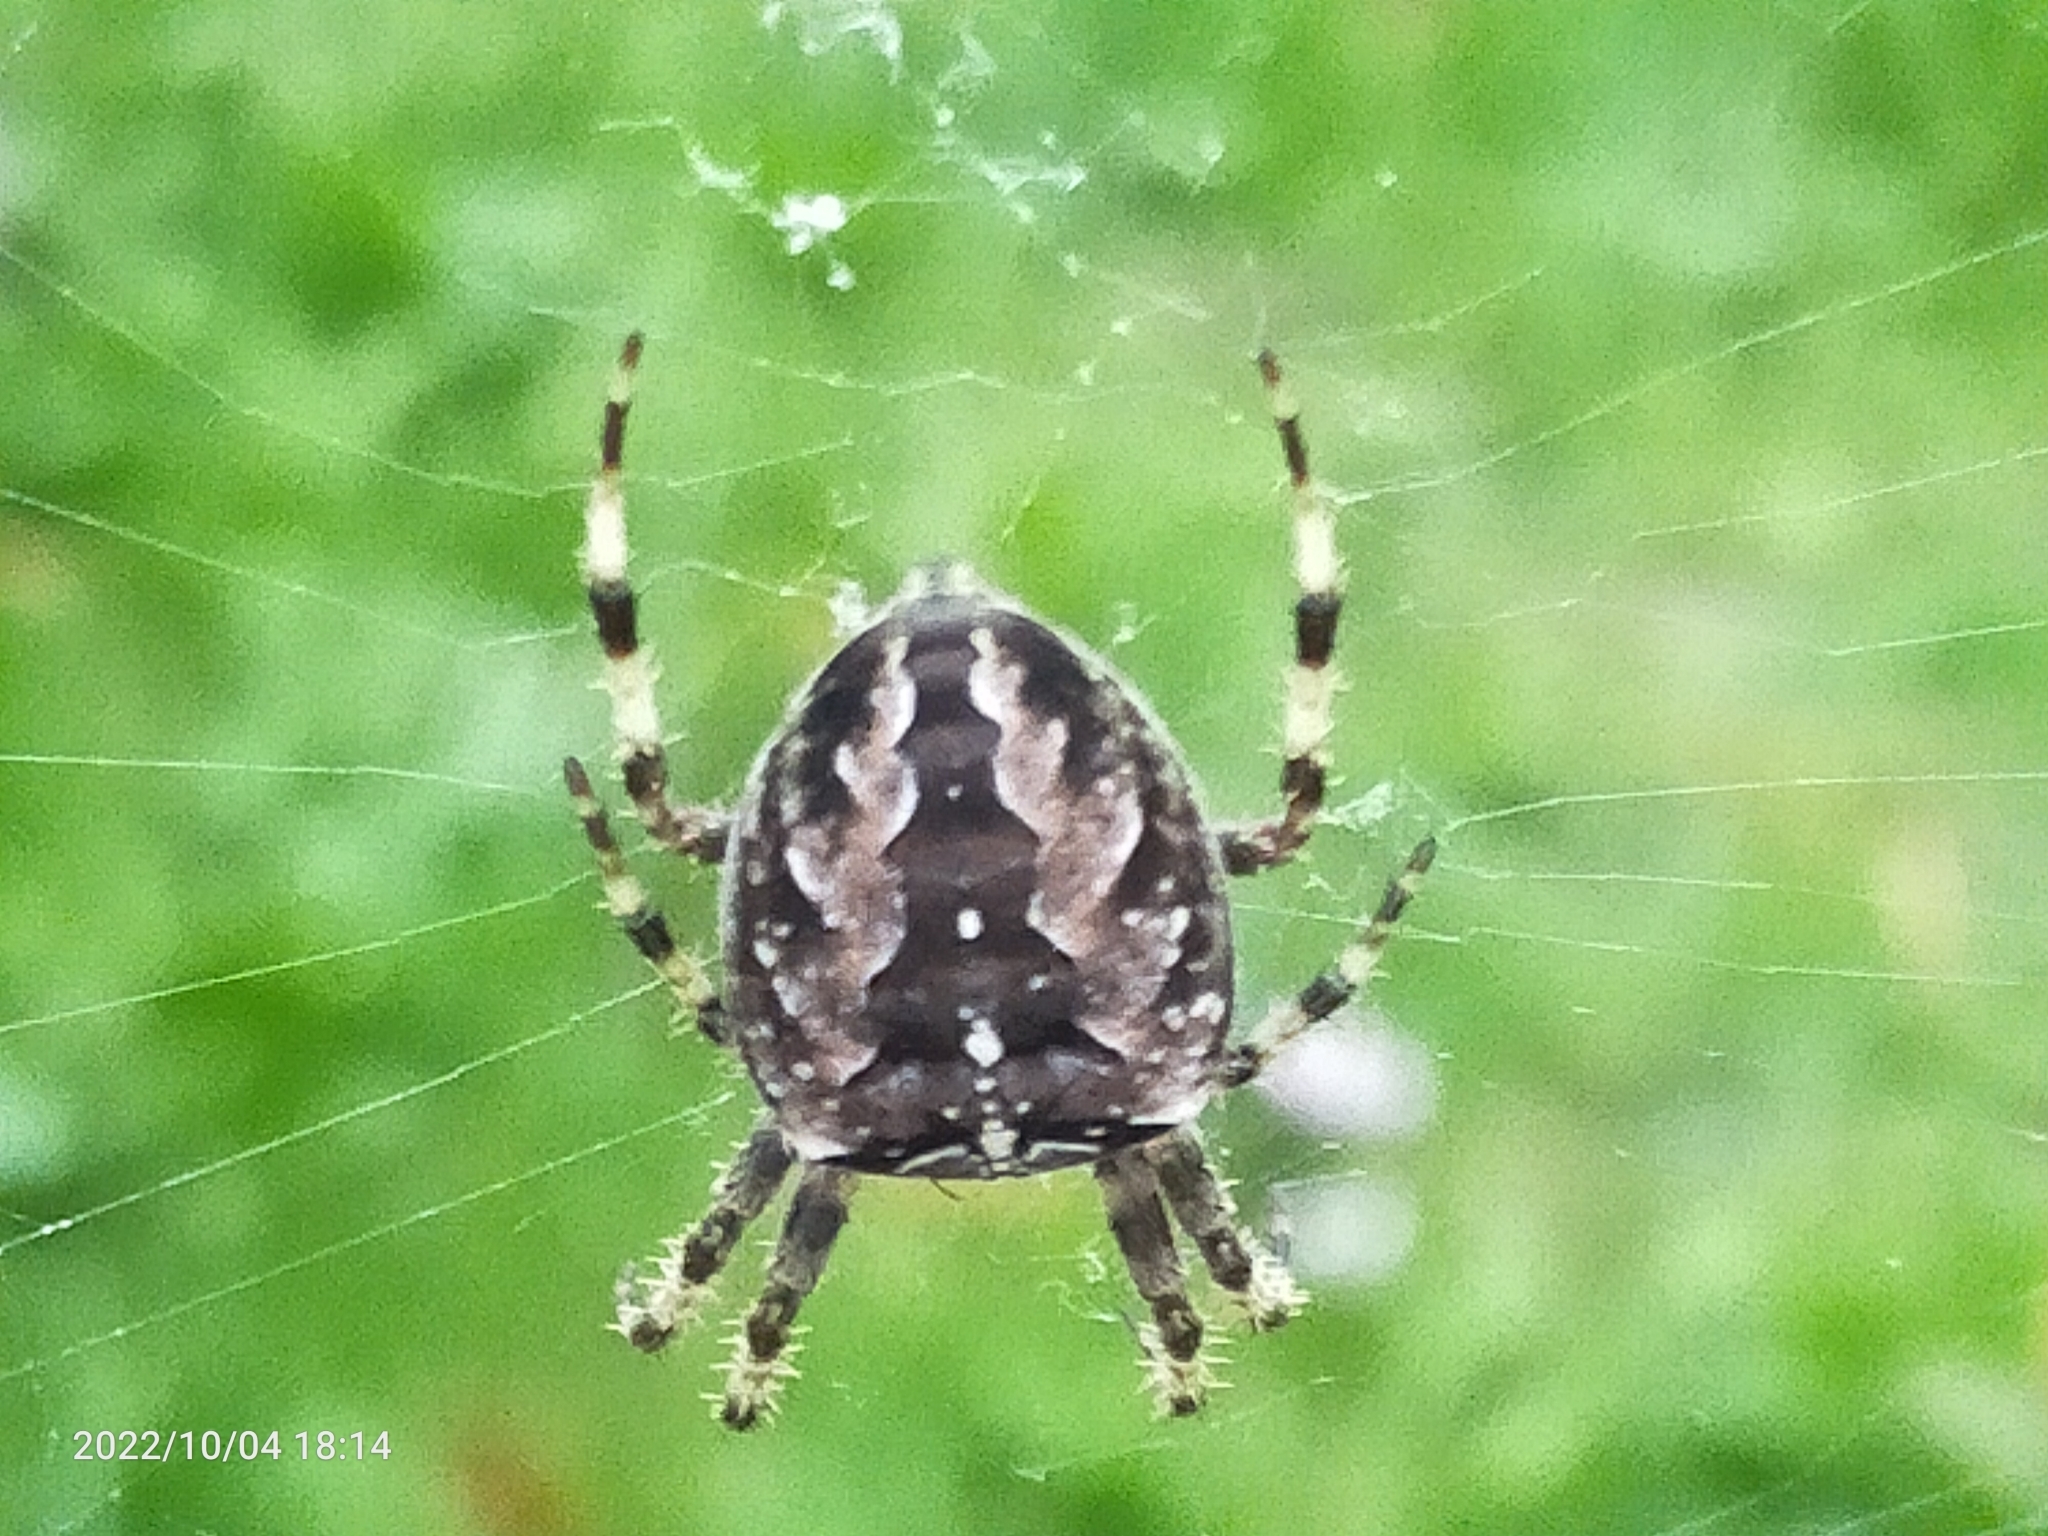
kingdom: Animalia
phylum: Arthropoda
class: Arachnida
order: Araneae
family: Araneidae
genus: Araneus
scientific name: Araneus diadematus
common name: Cross orbweaver
